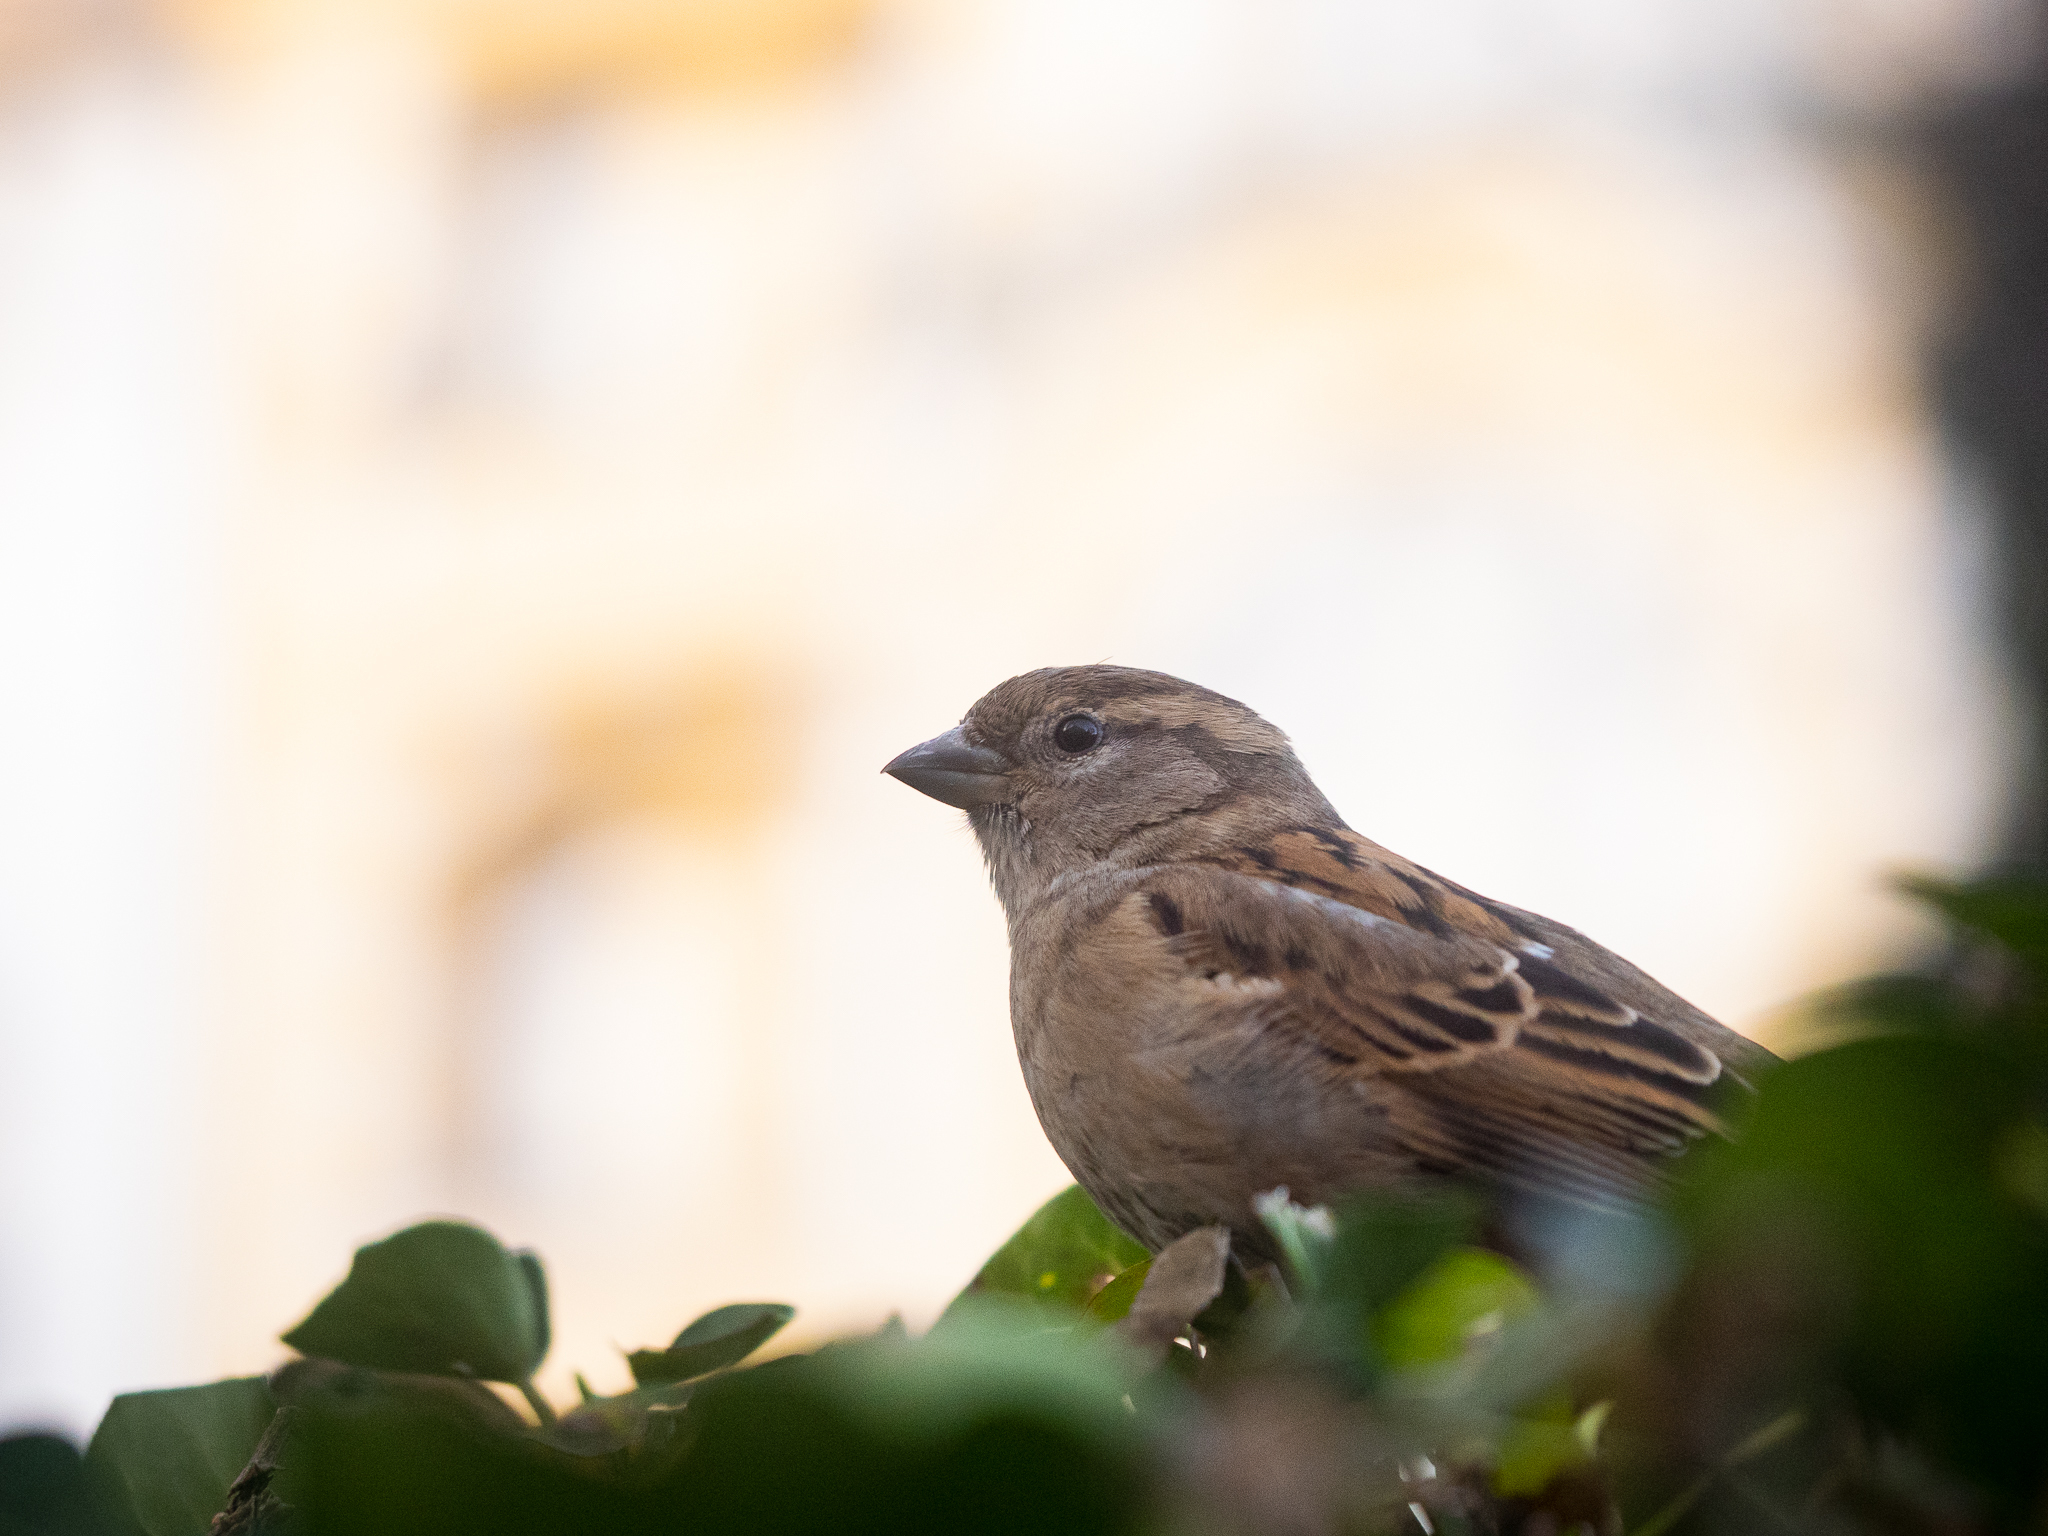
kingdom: Animalia
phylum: Chordata
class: Aves
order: Passeriformes
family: Passeridae
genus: Passer
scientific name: Passer domesticus
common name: House sparrow
